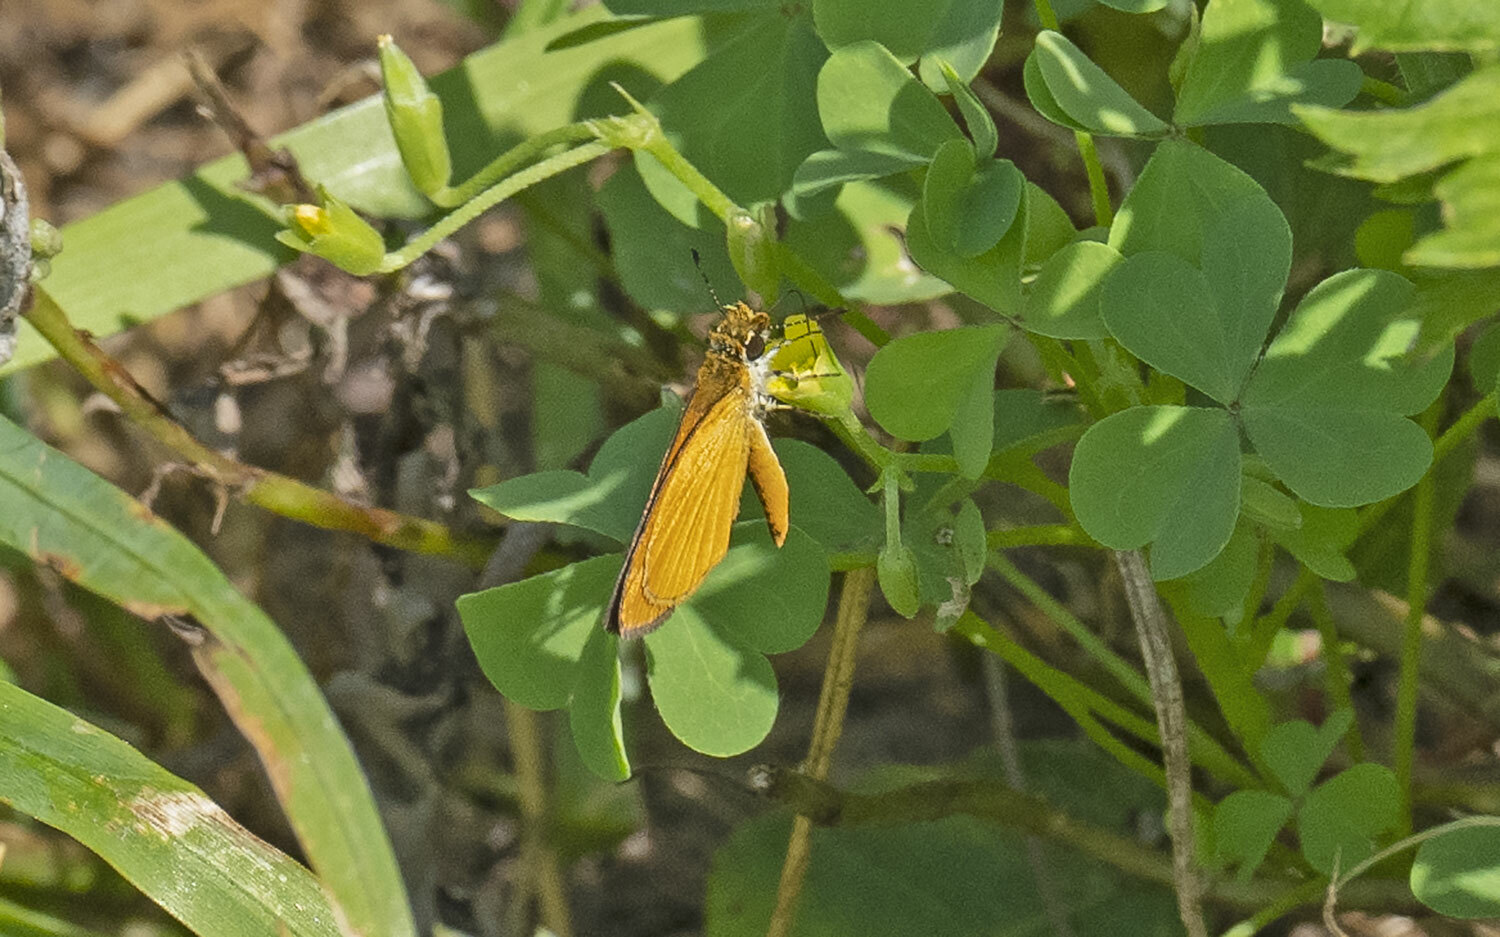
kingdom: Animalia
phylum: Arthropoda
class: Insecta
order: Lepidoptera
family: Hesperiidae
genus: Ancyloxypha
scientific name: Ancyloxypha numitor
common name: Least skipper
